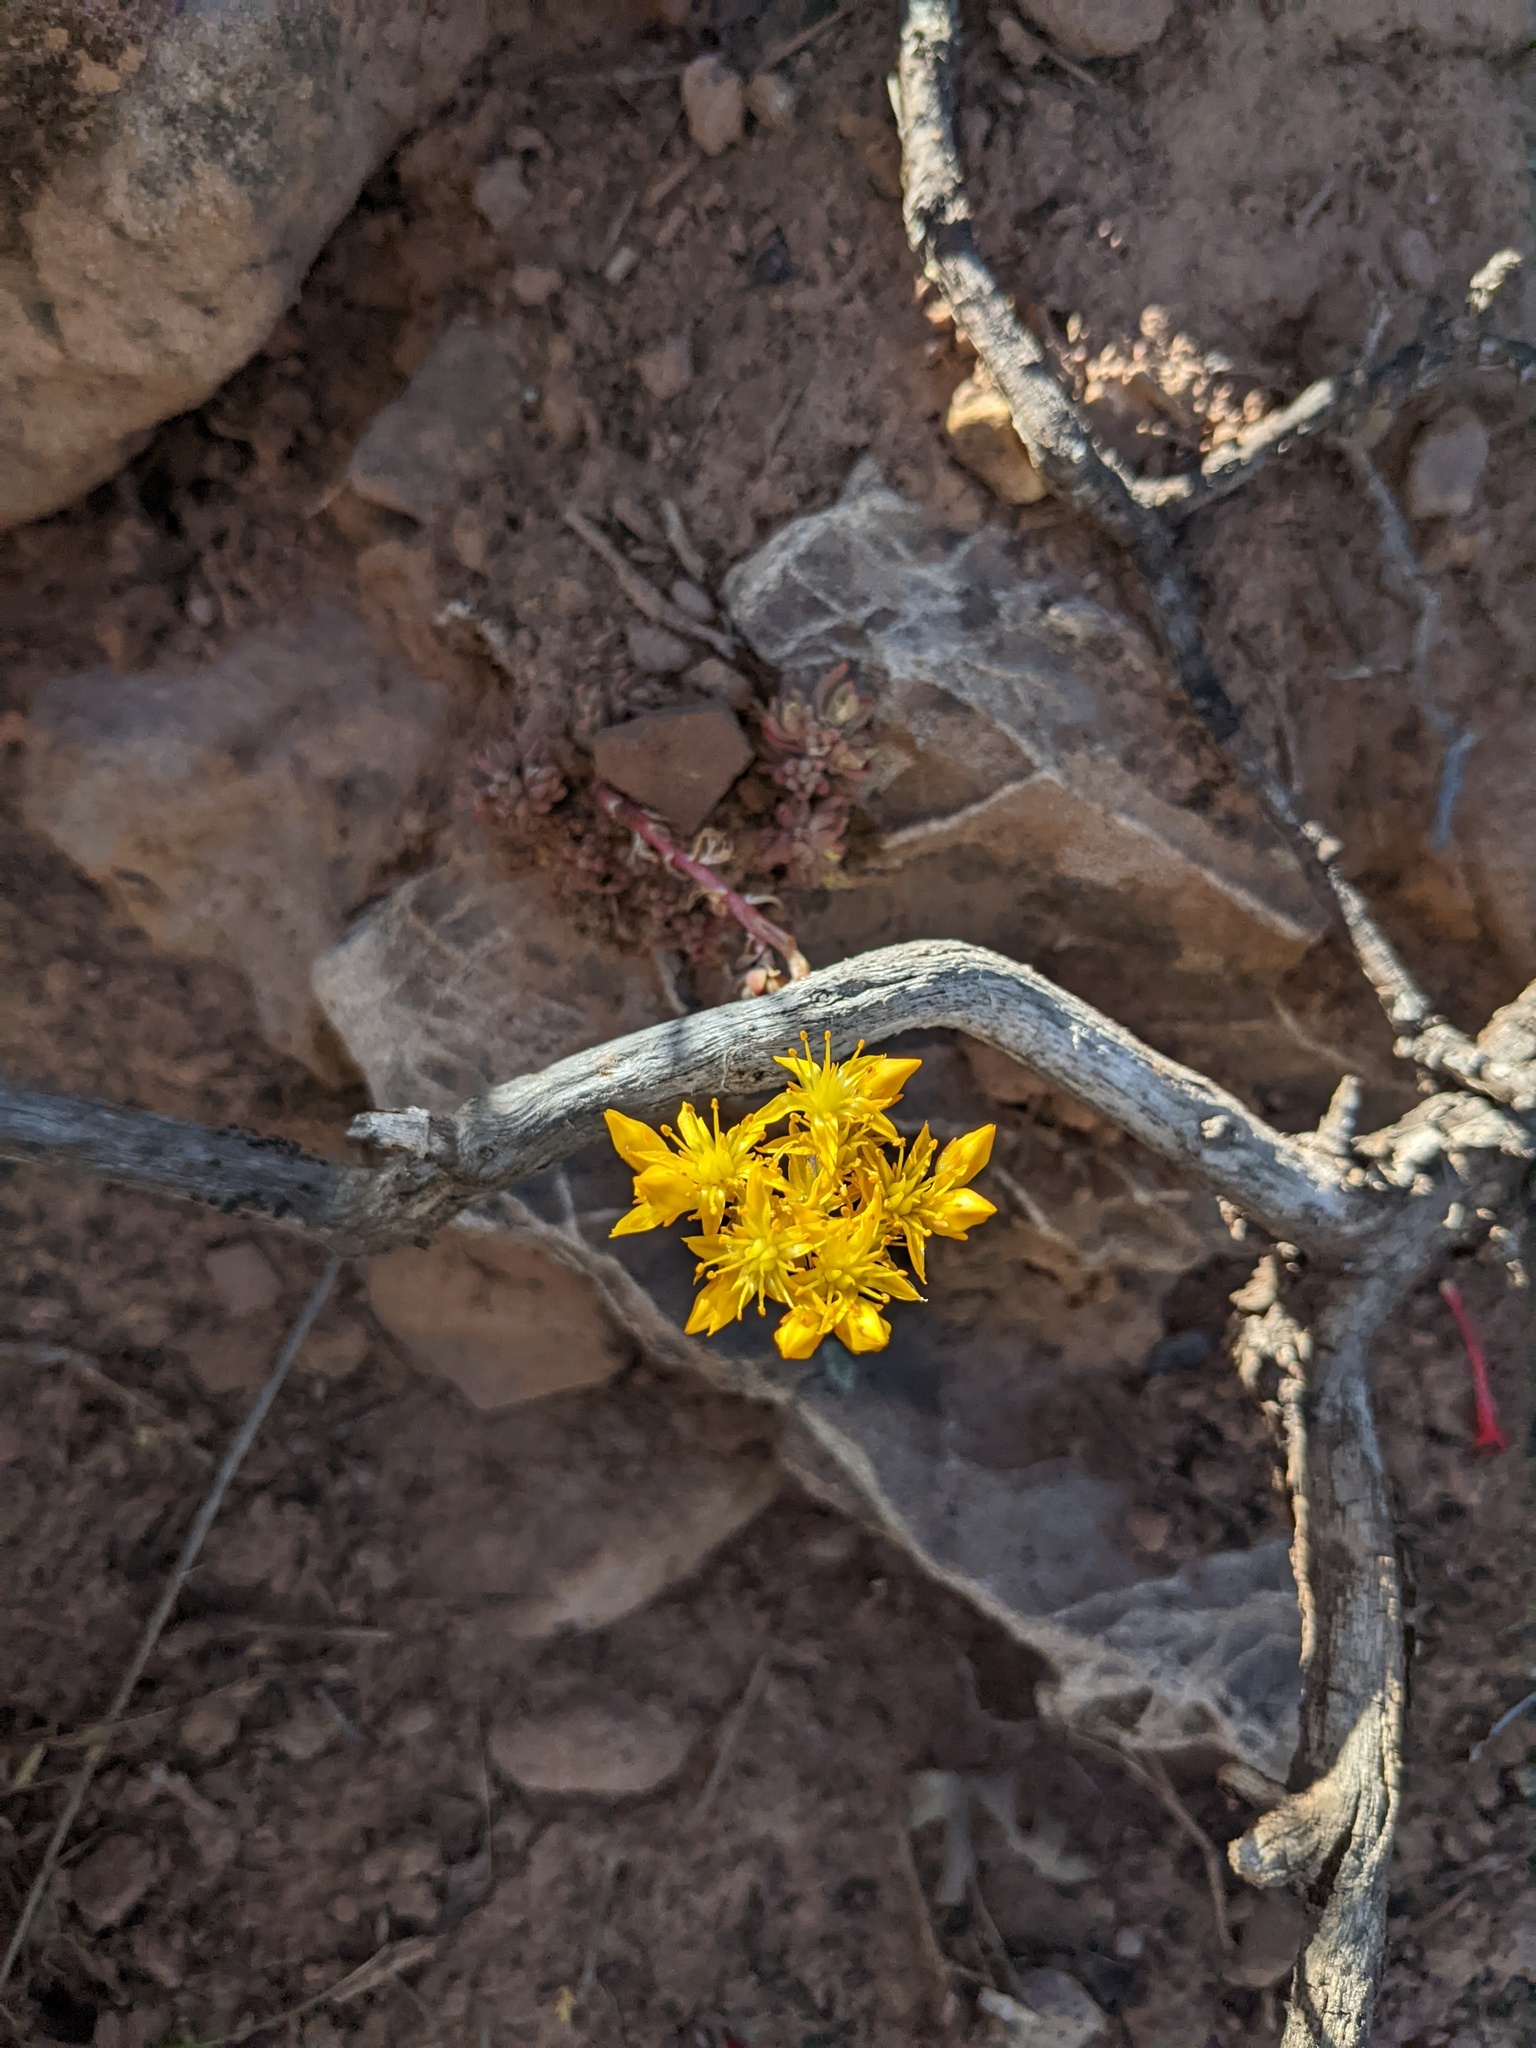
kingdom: Plantae
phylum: Tracheophyta
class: Magnoliopsida
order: Saxifragales
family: Crassulaceae
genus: Sedum
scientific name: Sedum lanceolatum
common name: Common stonecrop
